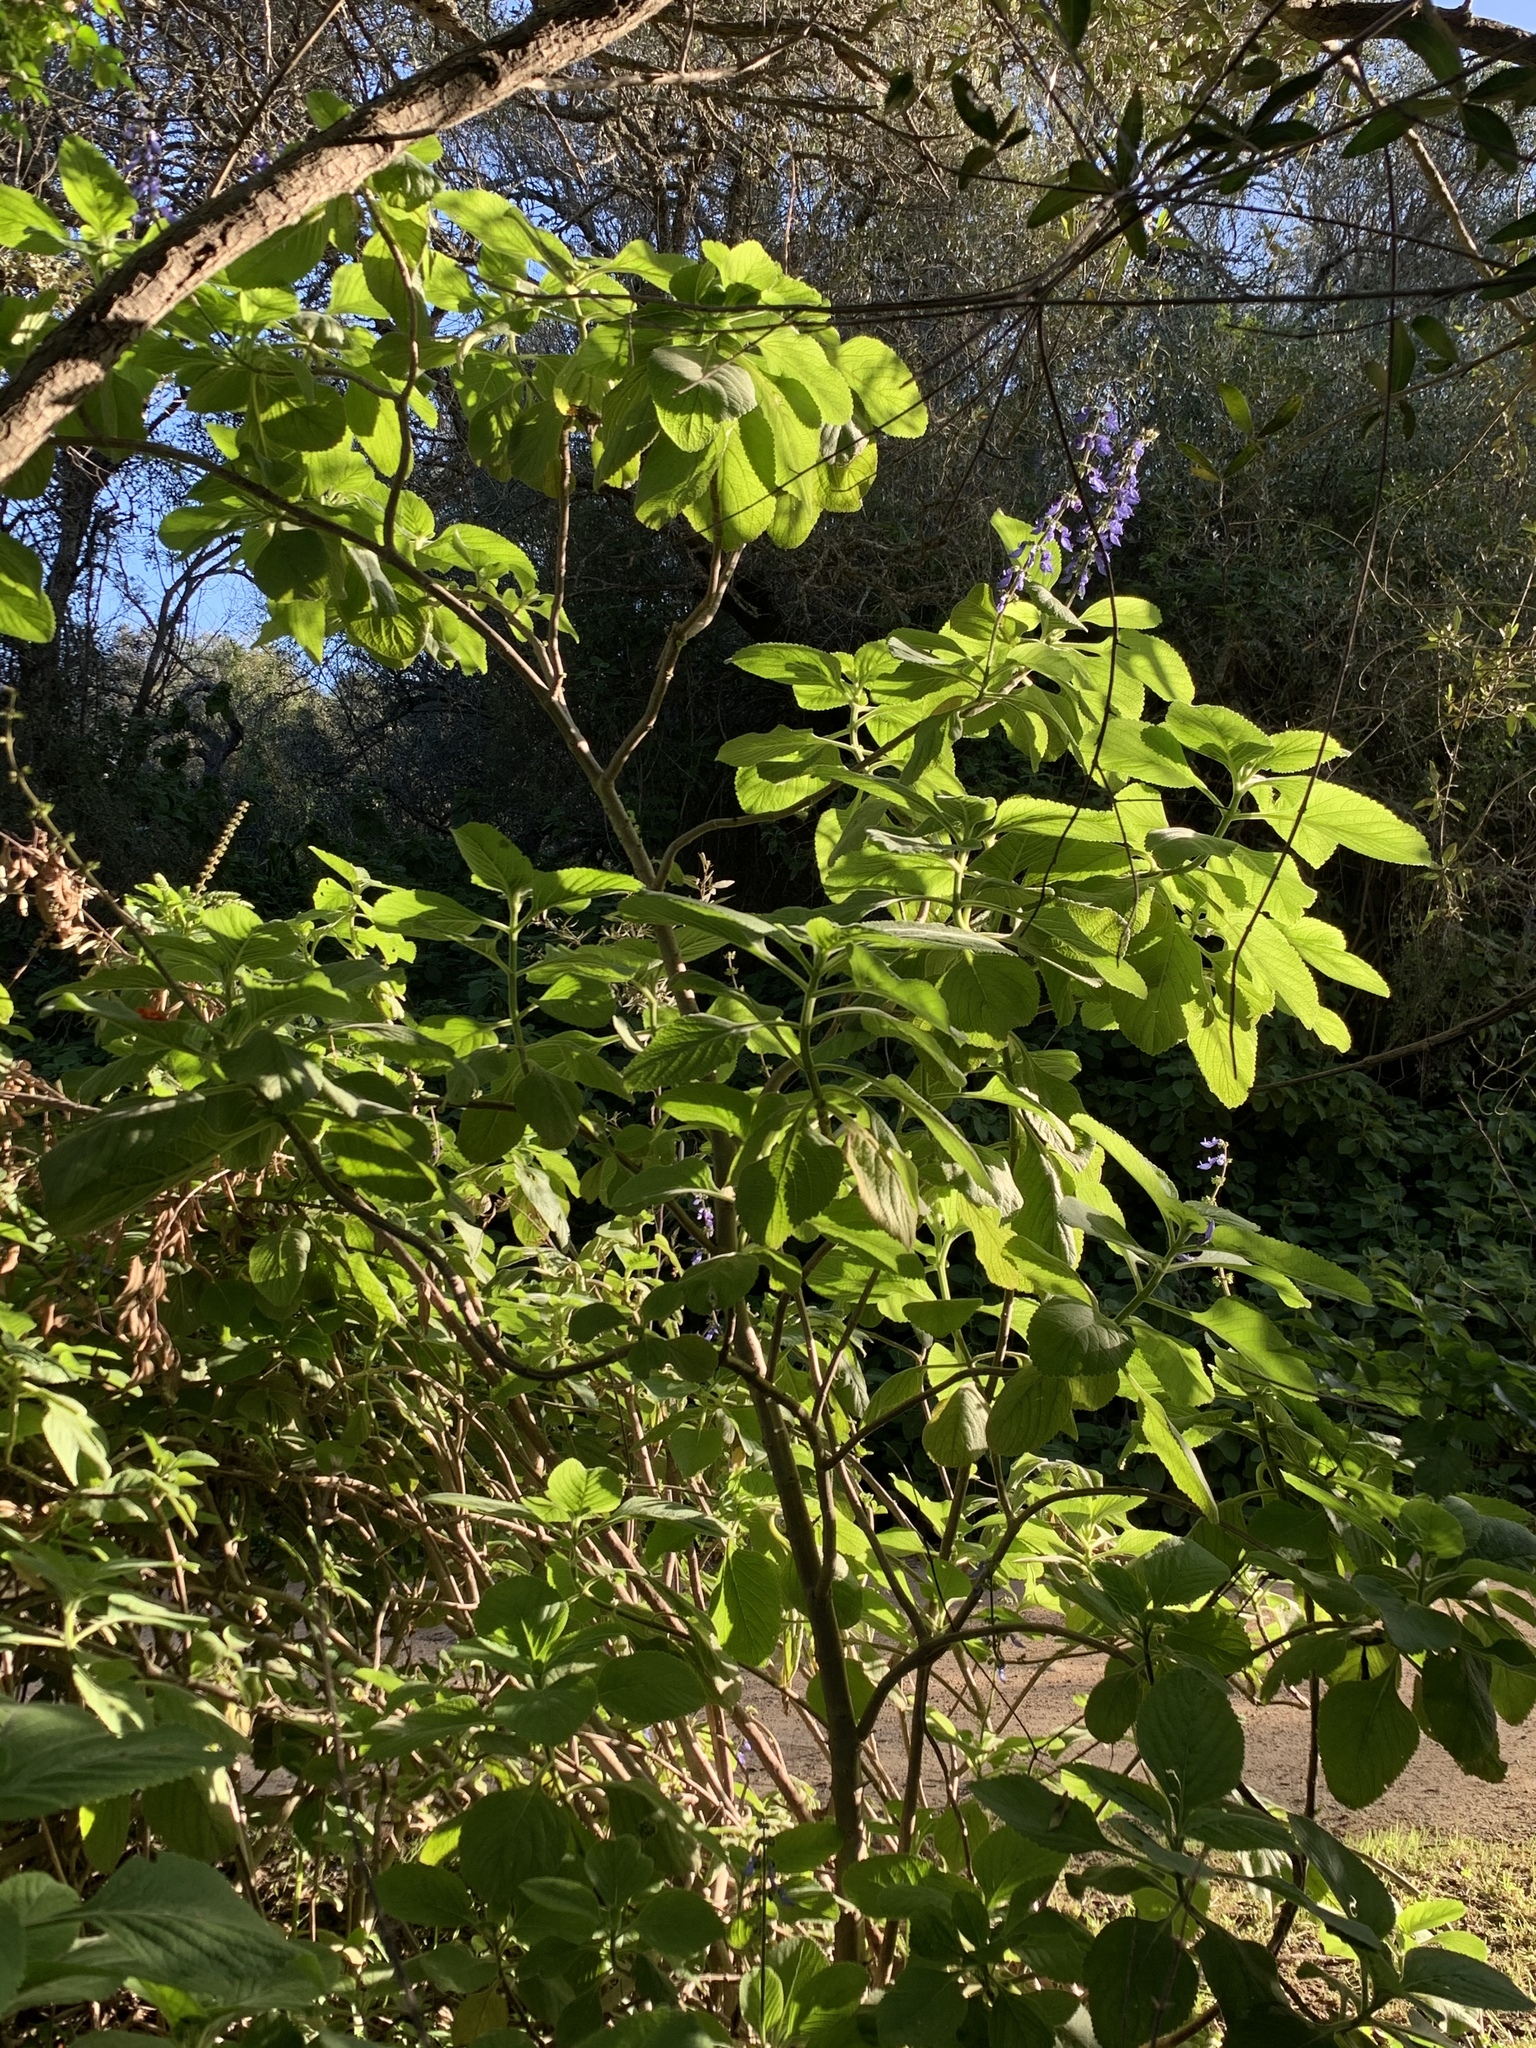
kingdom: Plantae
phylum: Tracheophyta
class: Magnoliopsida
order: Lamiales
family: Lamiaceae
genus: Coleus
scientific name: Coleus barbatus
